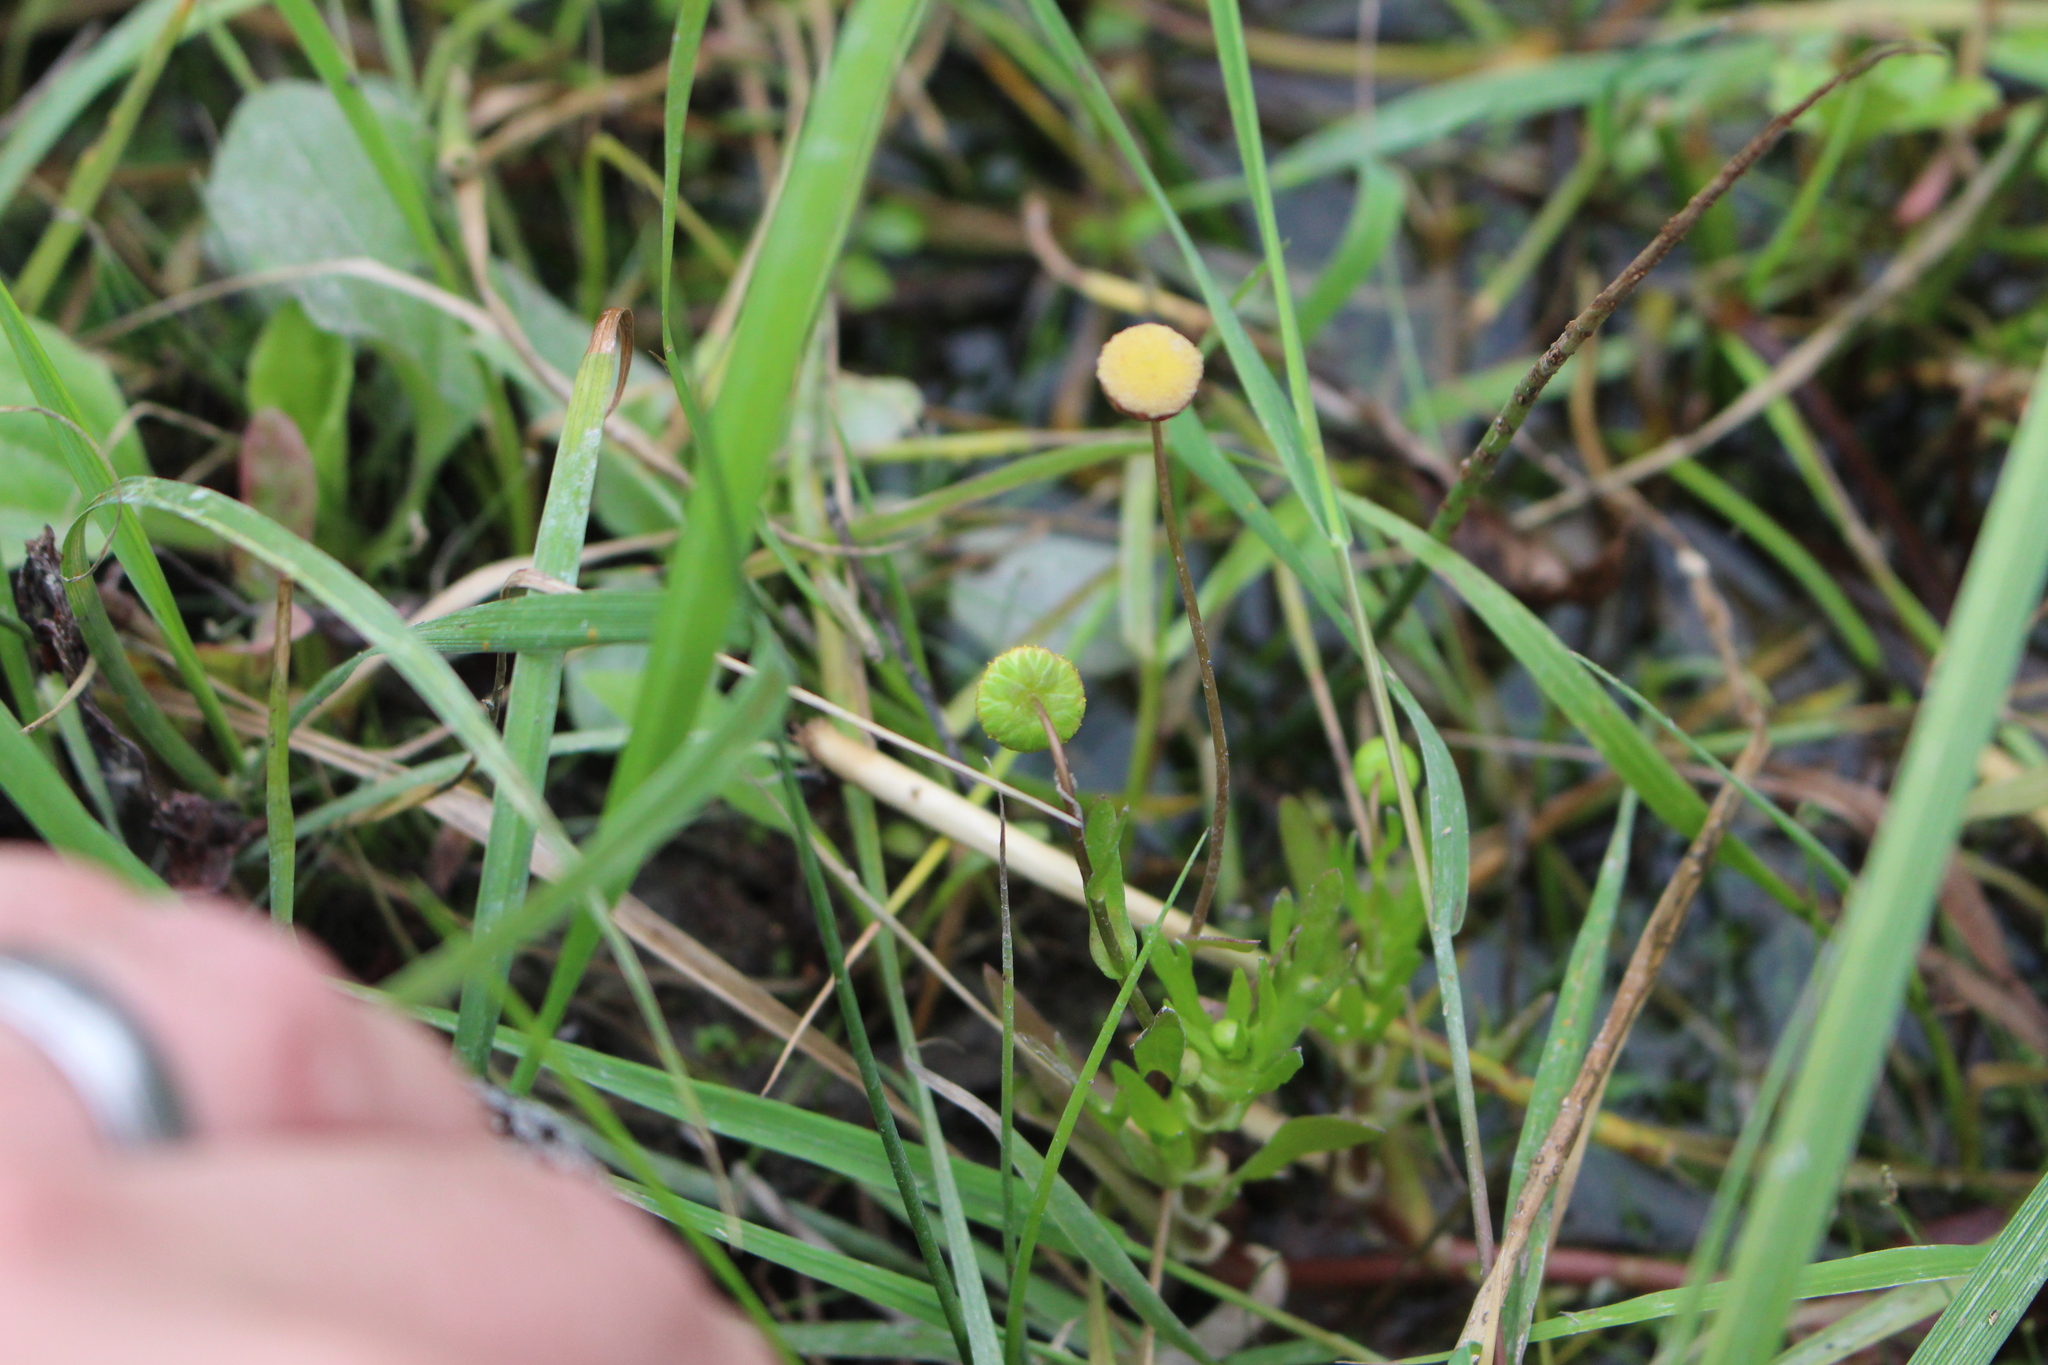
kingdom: Plantae
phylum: Tracheophyta
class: Magnoliopsida
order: Asterales
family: Asteraceae
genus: Cotula
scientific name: Cotula coronopifolia
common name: Buttonweed
